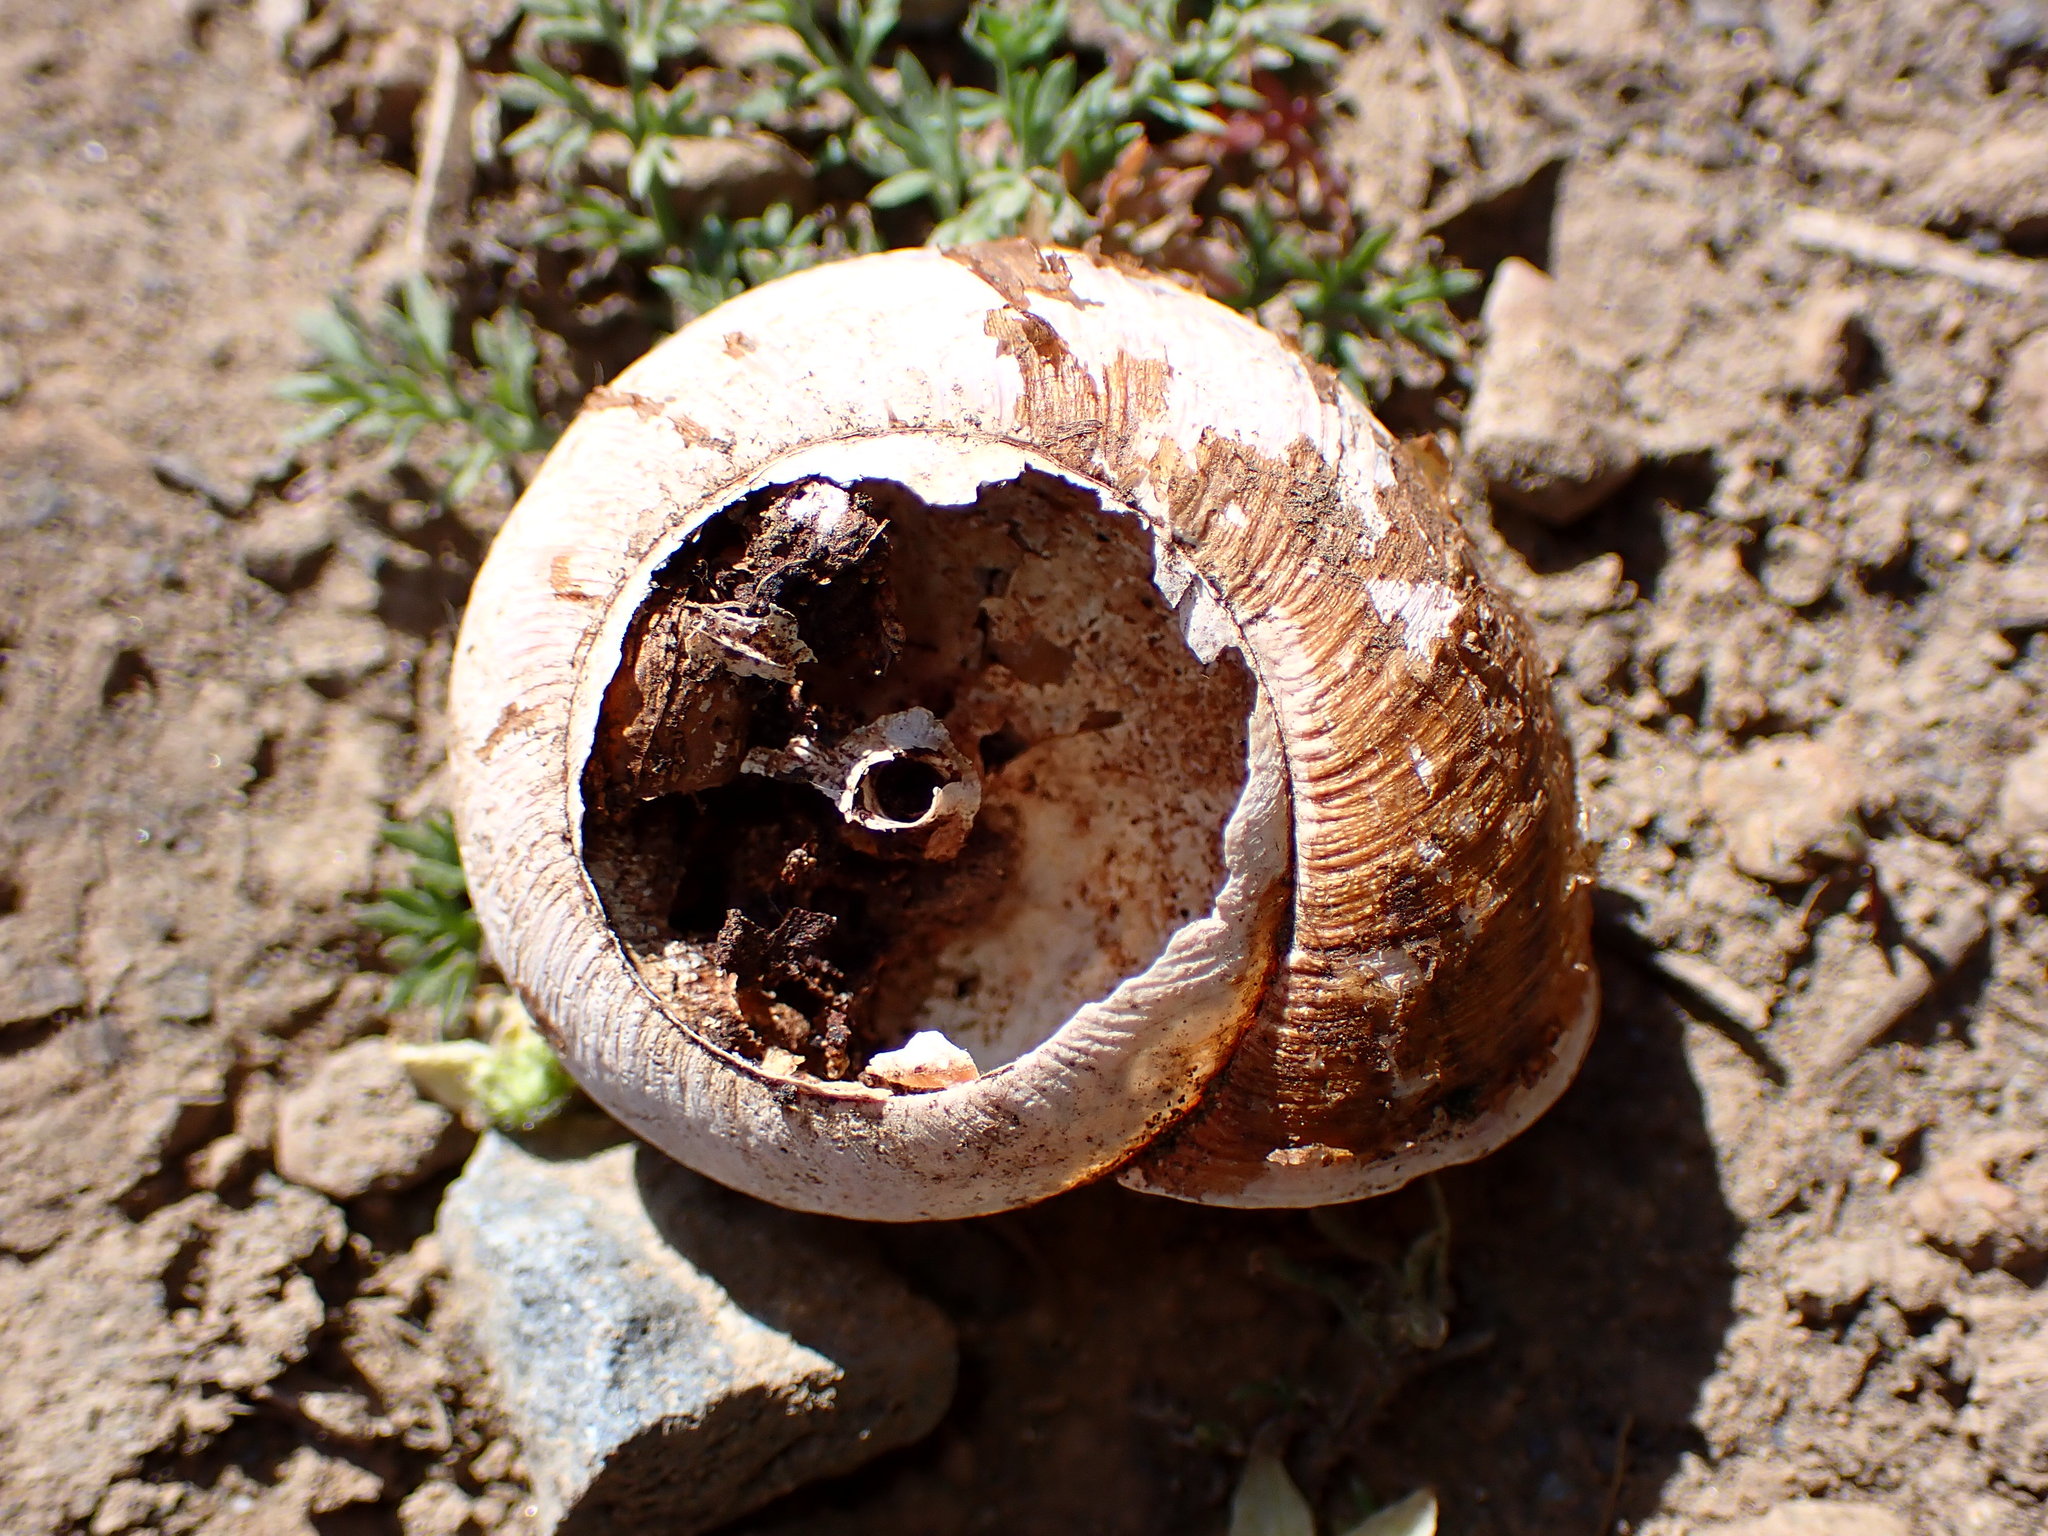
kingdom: Animalia
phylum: Mollusca
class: Gastropoda
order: Stylommatophora
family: Xanthonychidae
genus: Helminthoglypta
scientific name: Helminthoglypta arrosa
